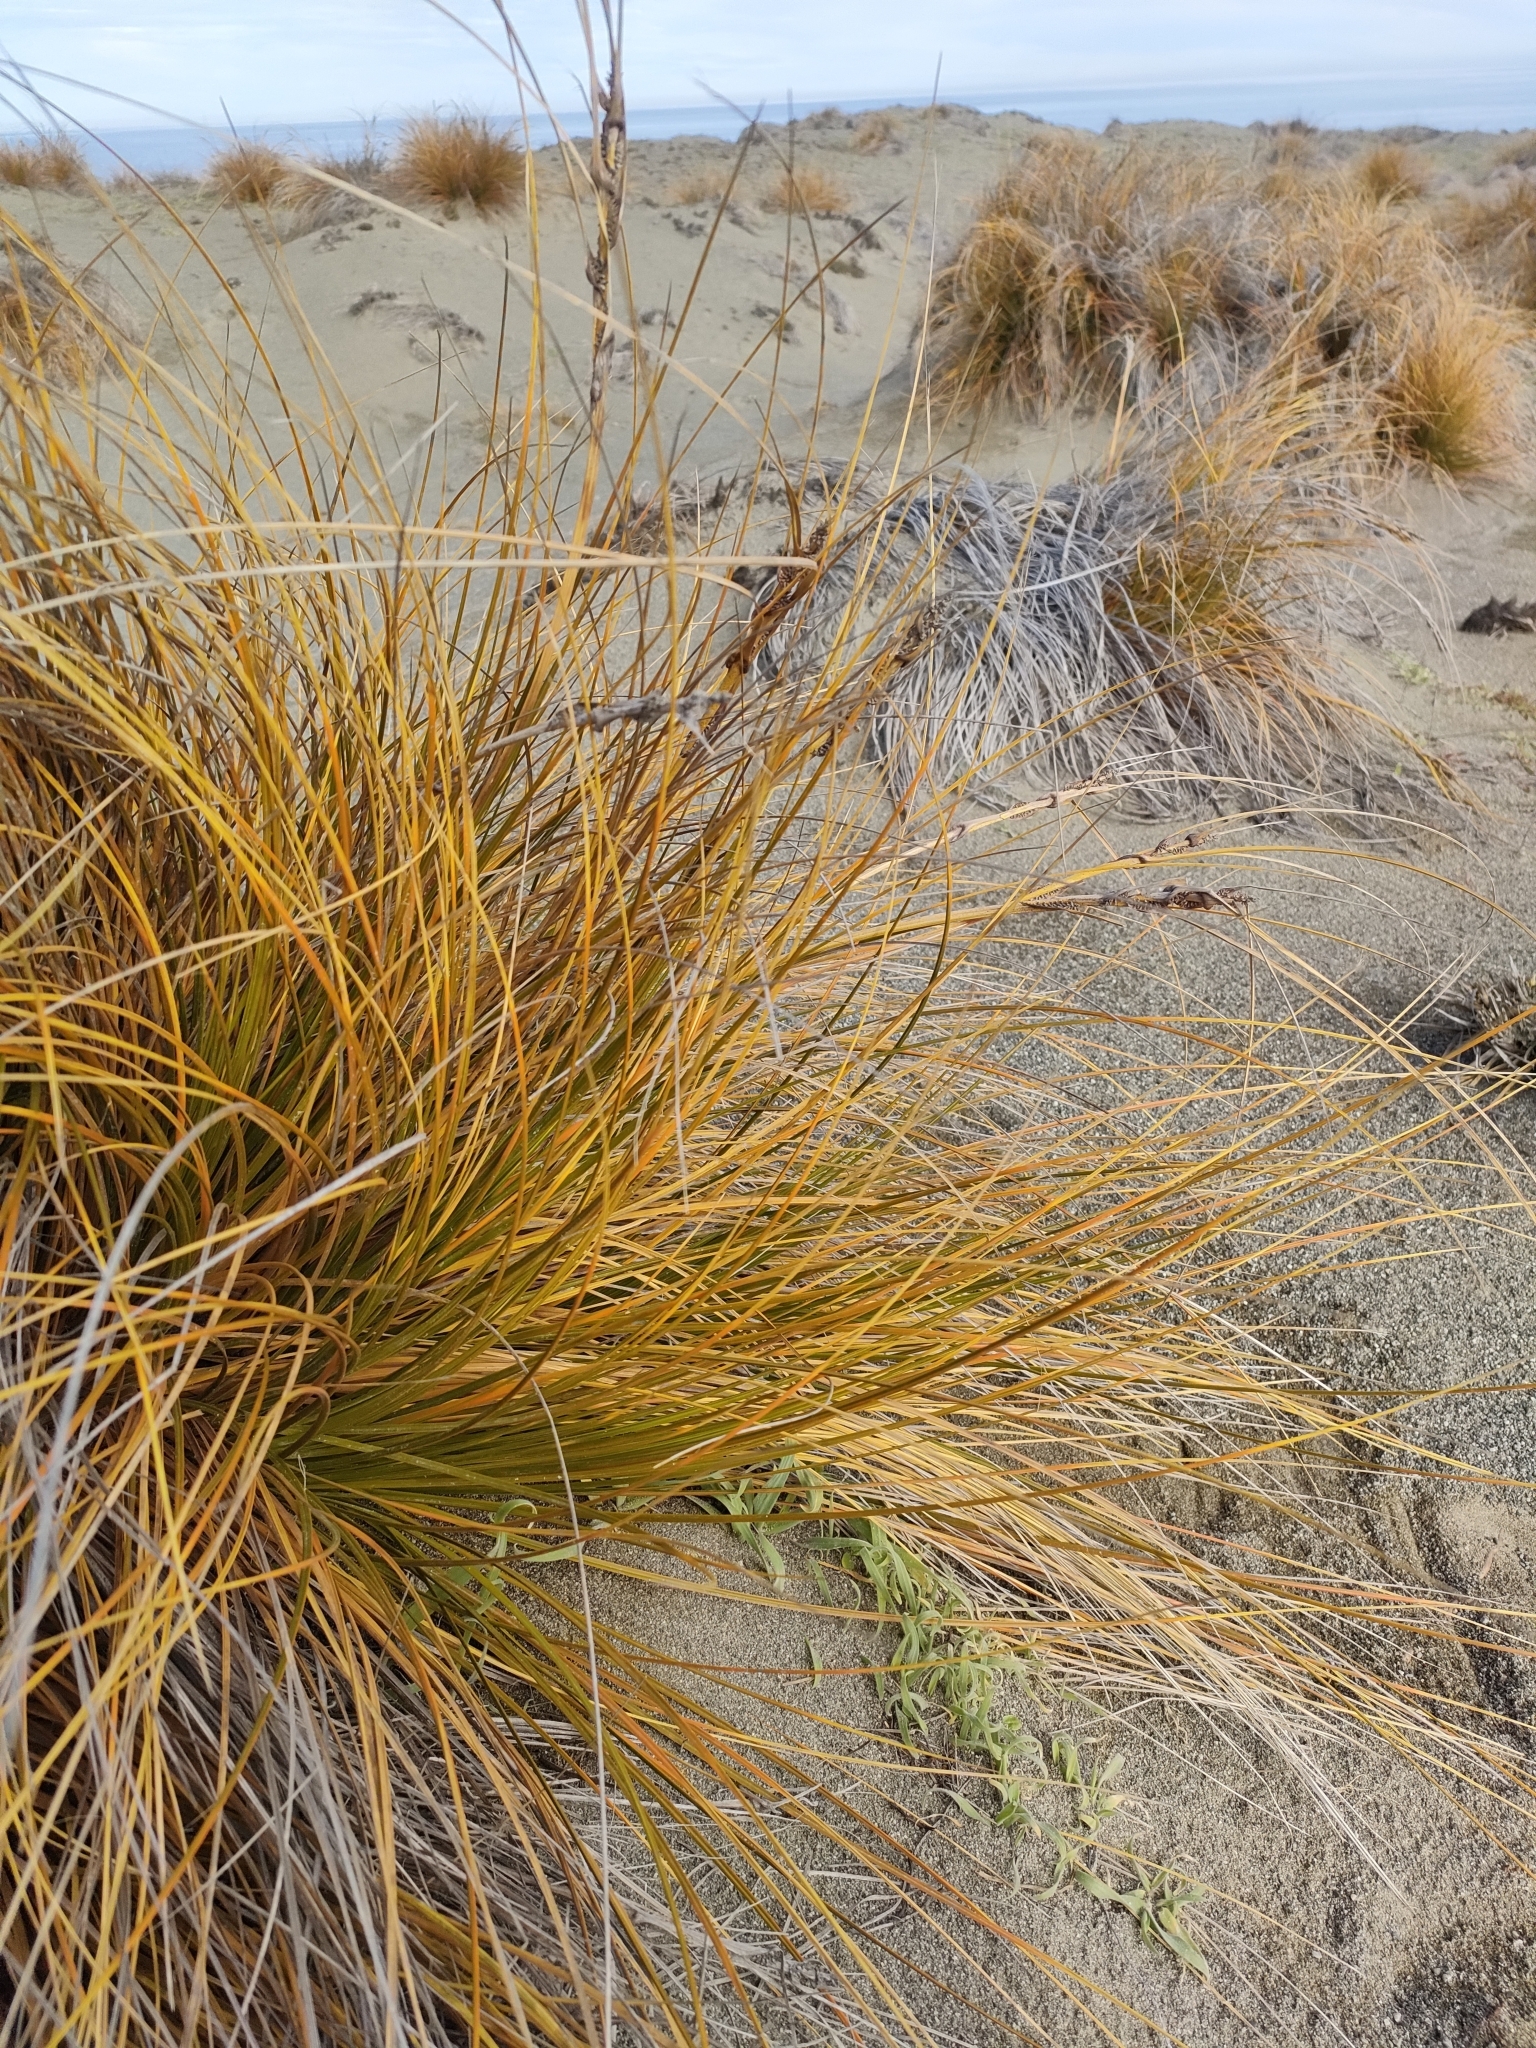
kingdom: Plantae
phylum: Tracheophyta
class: Liliopsida
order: Poales
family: Cyperaceae
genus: Ficinia
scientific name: Ficinia spiralis
